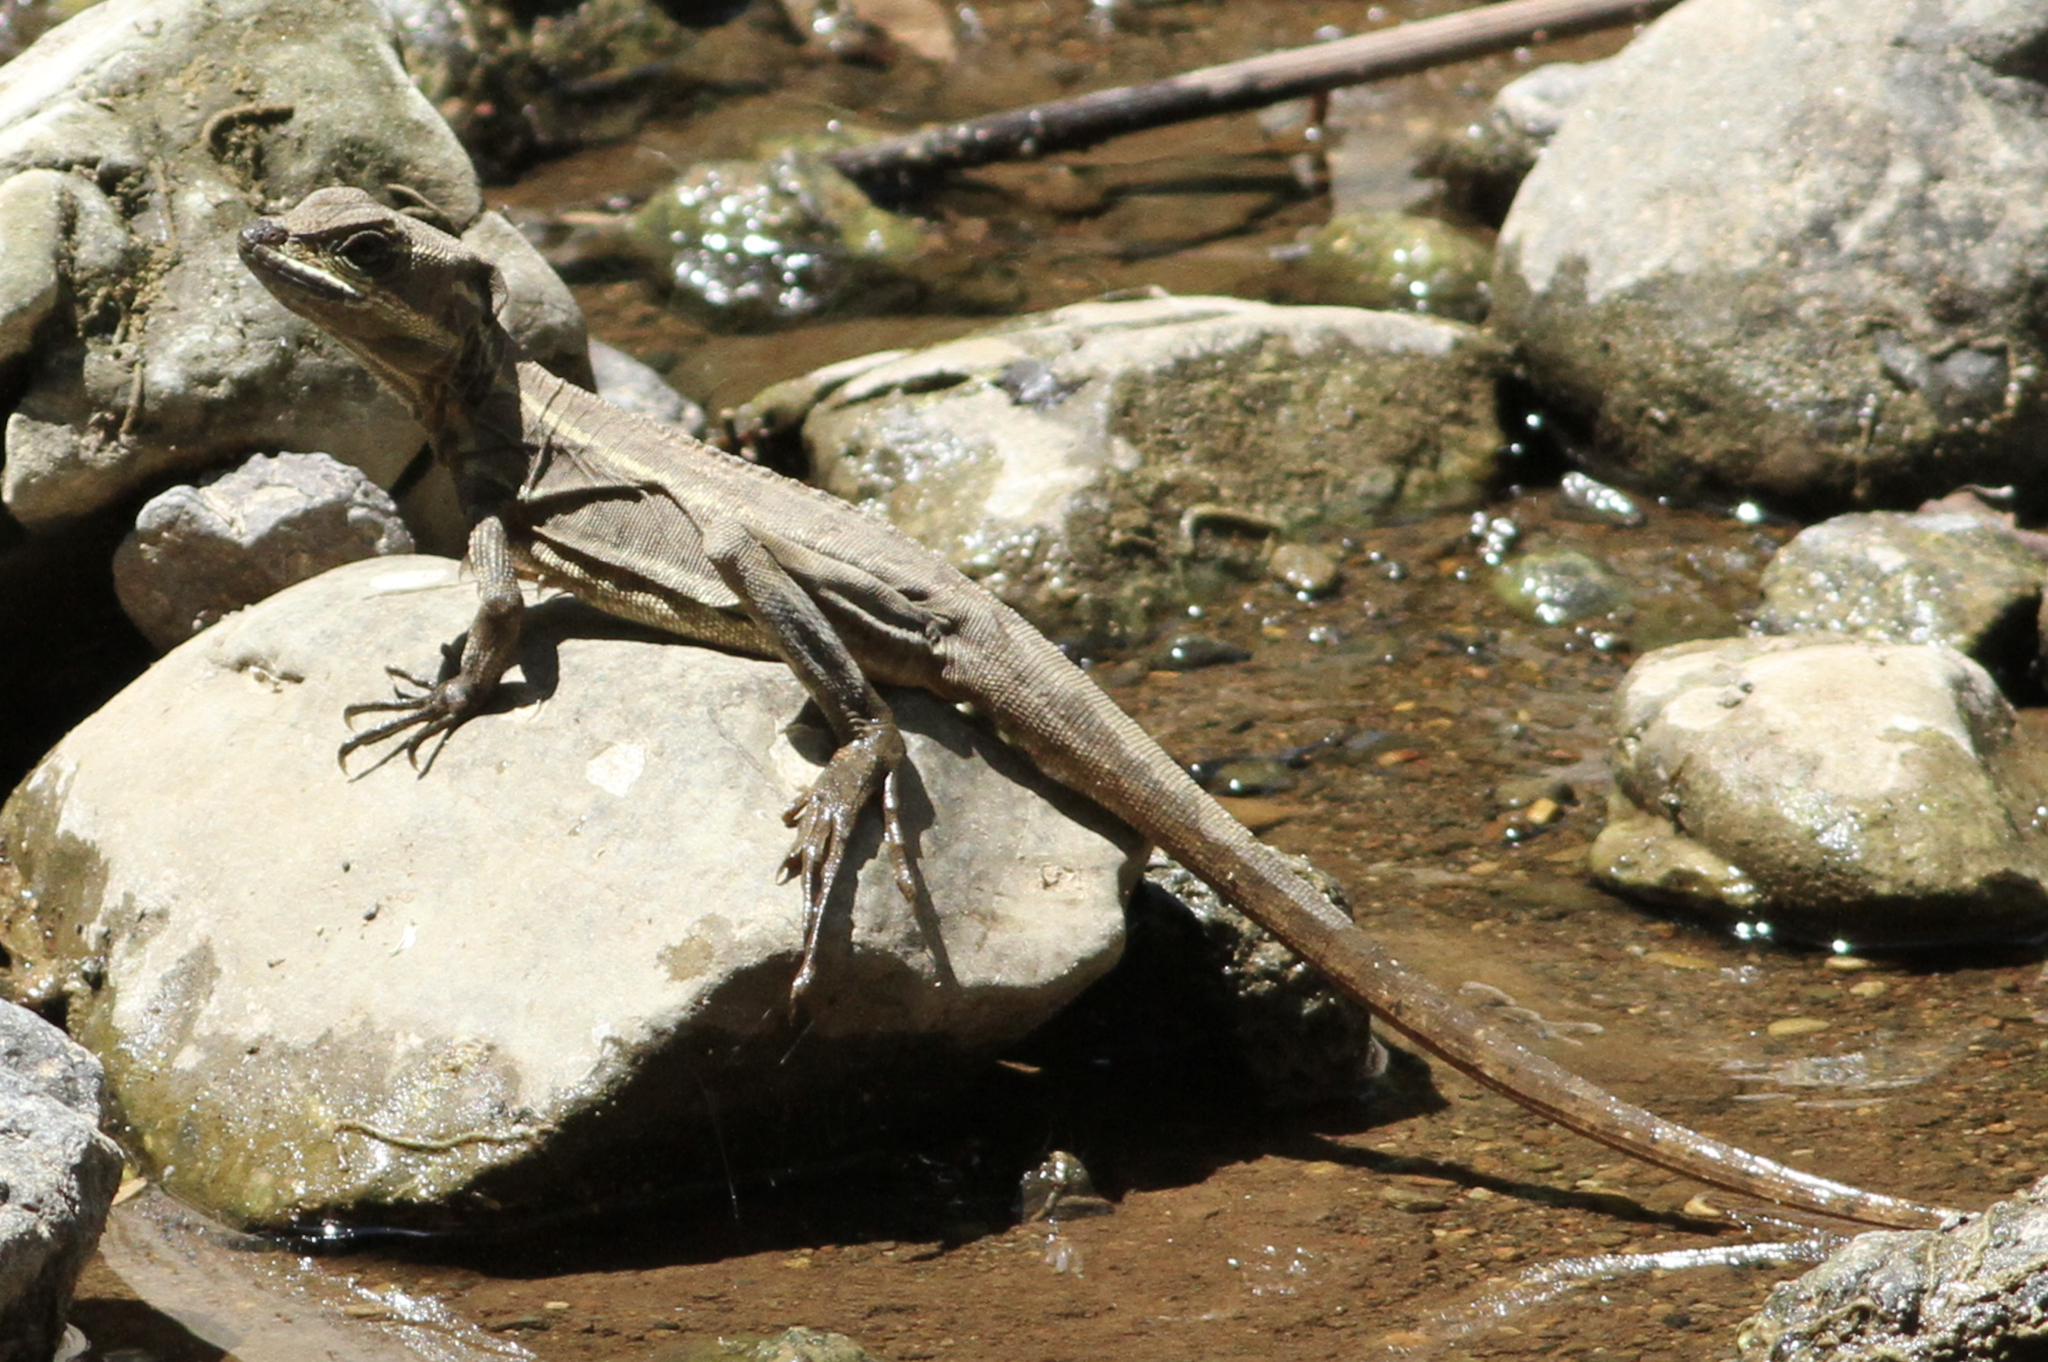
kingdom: Animalia
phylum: Chordata
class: Squamata
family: Corytophanidae
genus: Basiliscus
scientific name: Basiliscus basiliscus
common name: Common basilisk
